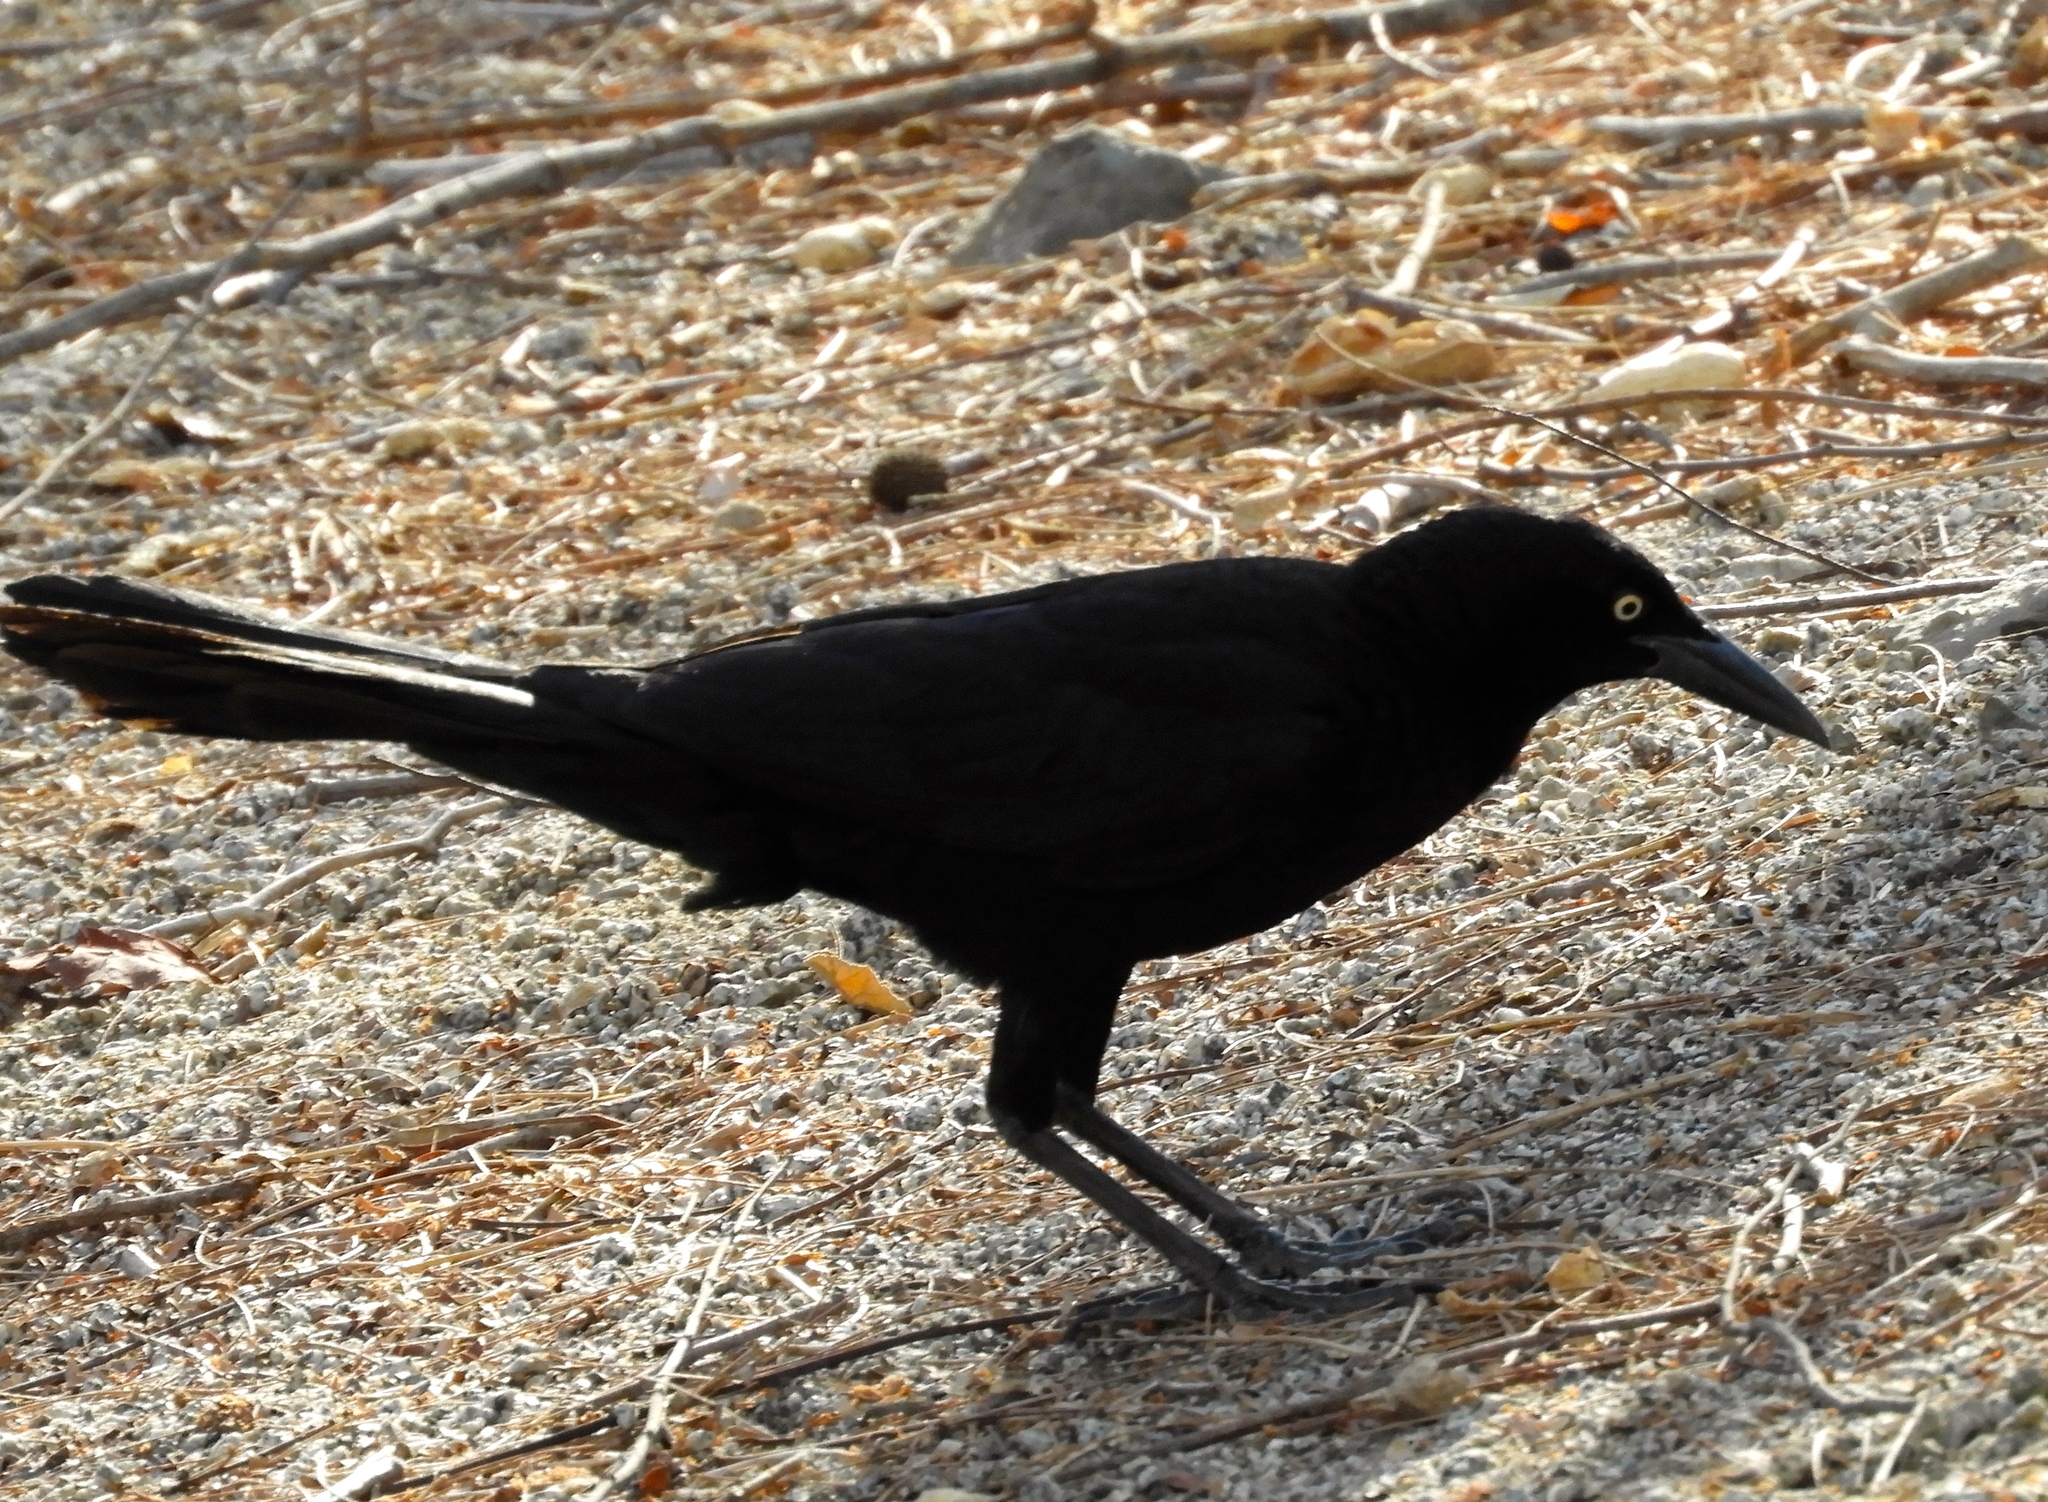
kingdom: Animalia
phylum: Chordata
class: Aves
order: Passeriformes
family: Icteridae
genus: Quiscalus
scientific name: Quiscalus mexicanus
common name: Great-tailed grackle
